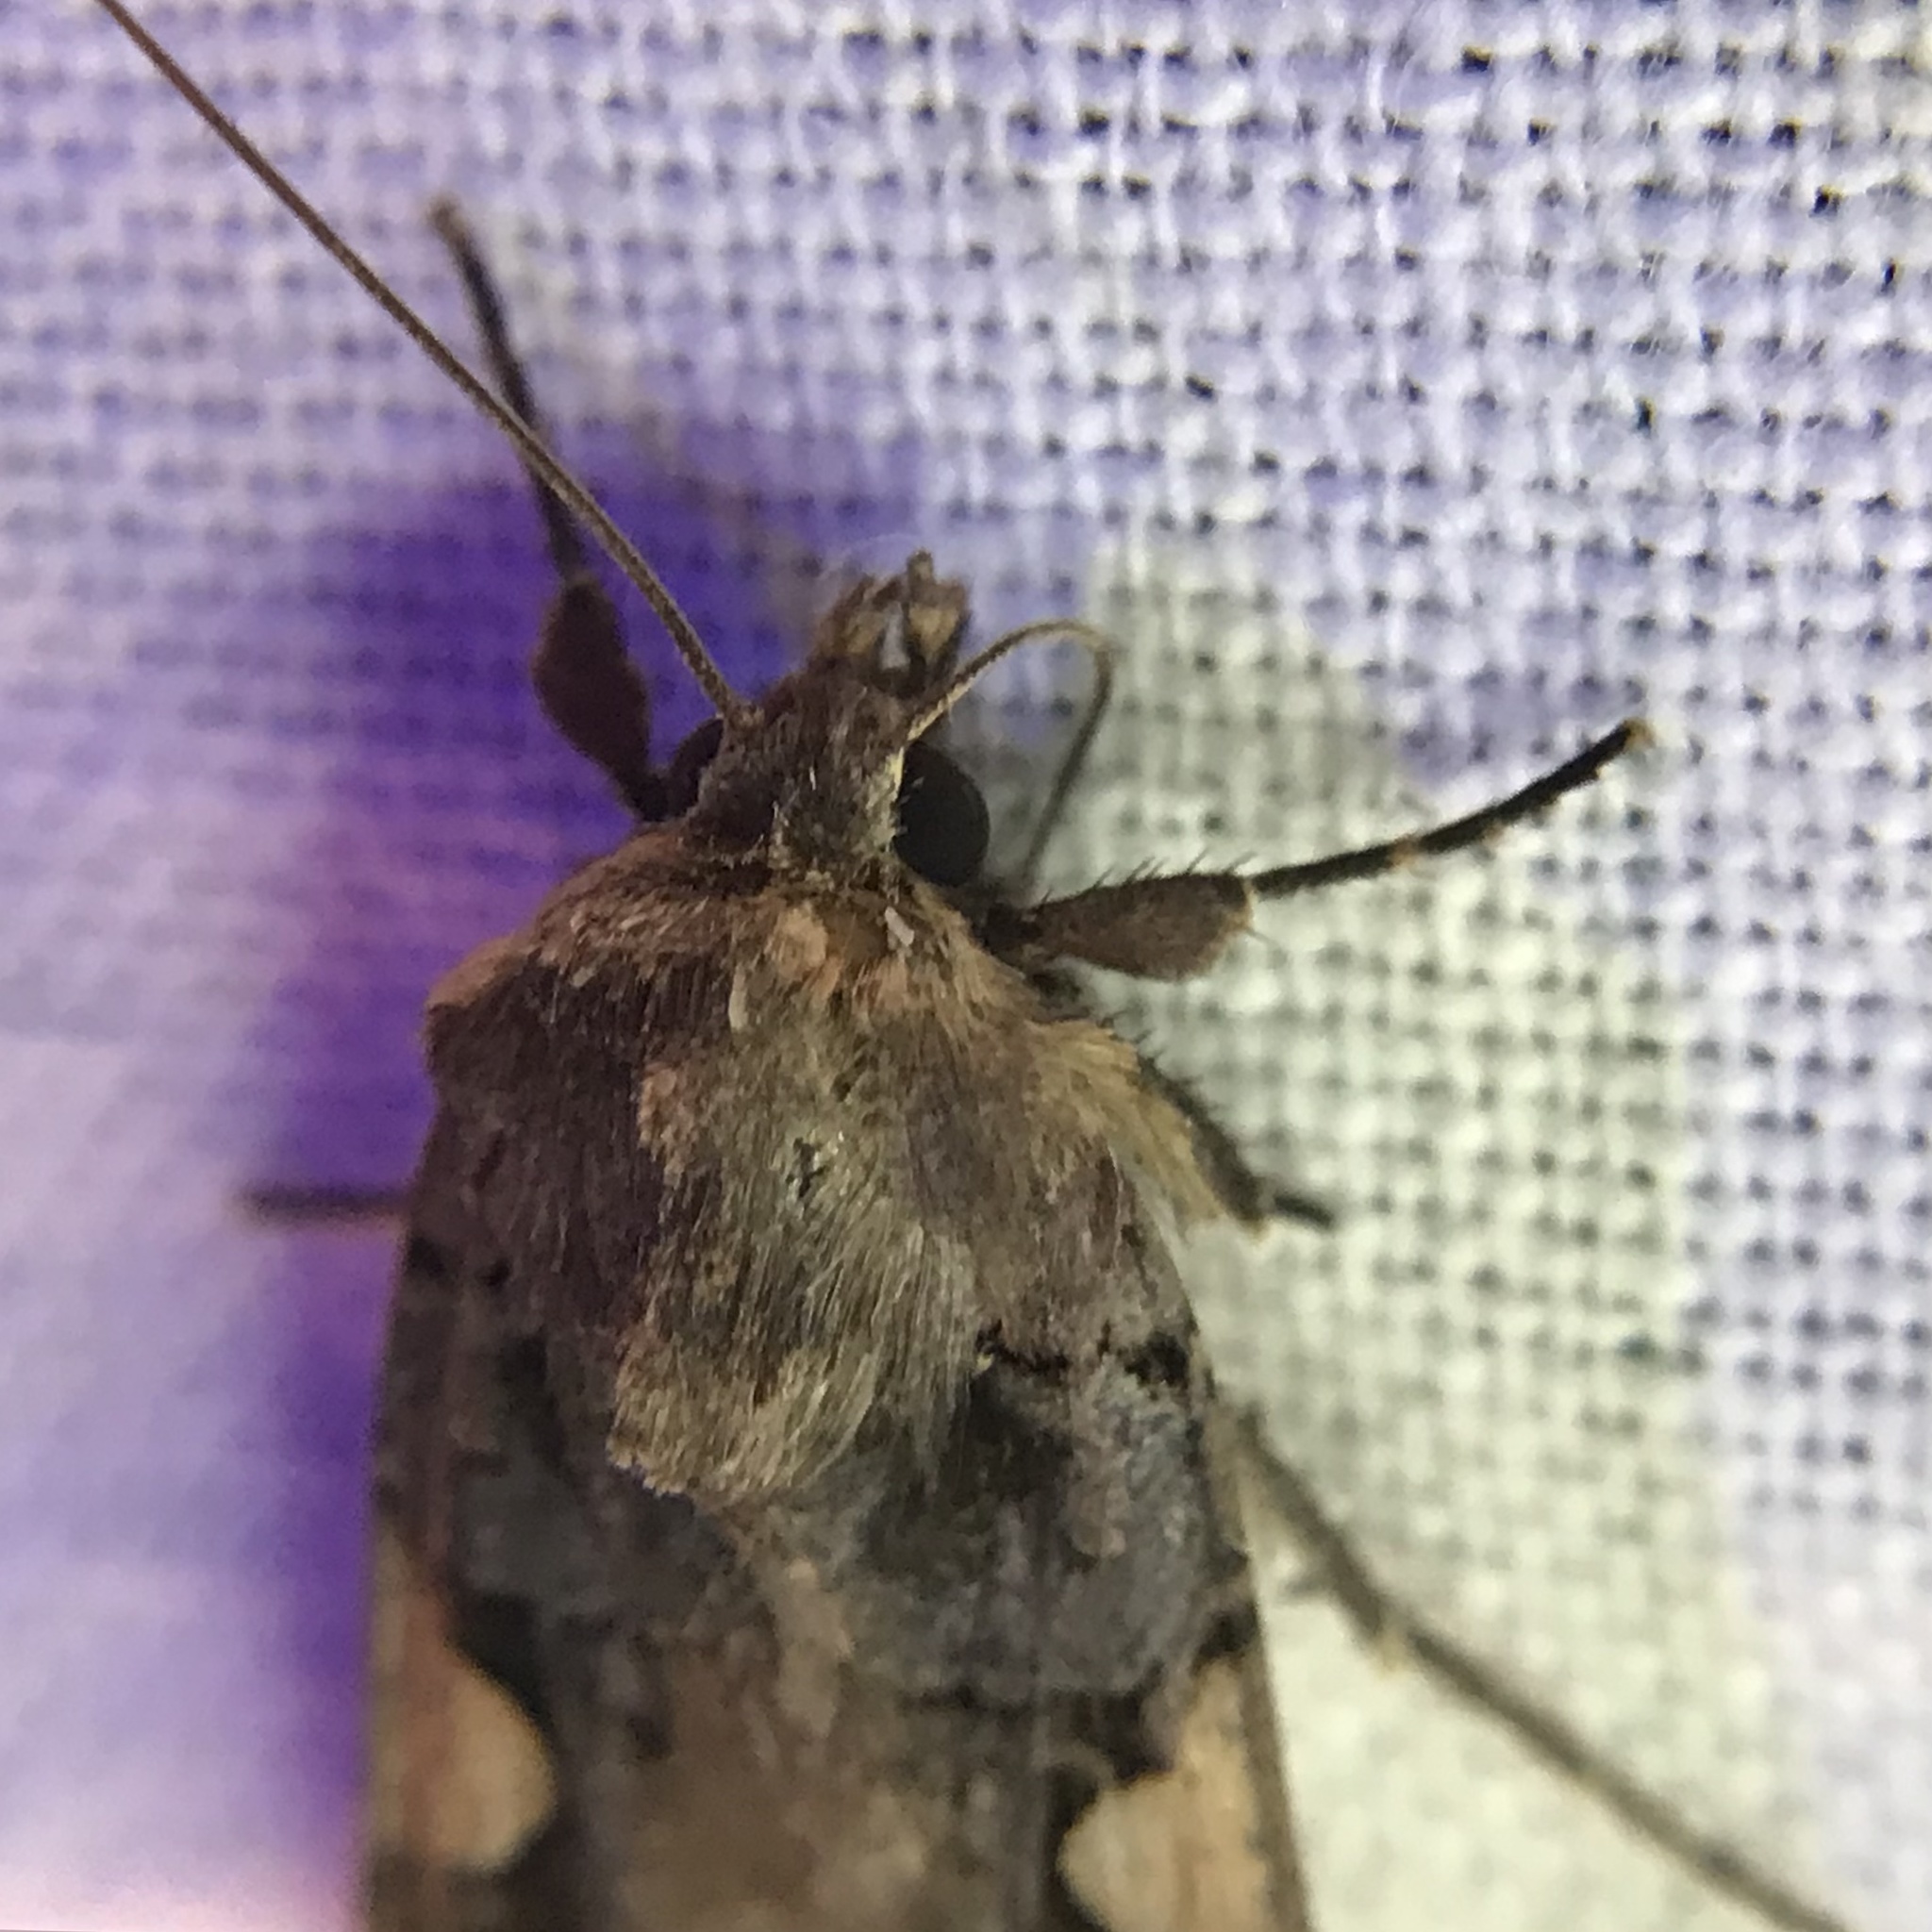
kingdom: Animalia
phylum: Arthropoda
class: Insecta
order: Lepidoptera
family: Noctuidae
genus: Xestia
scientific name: Xestia
